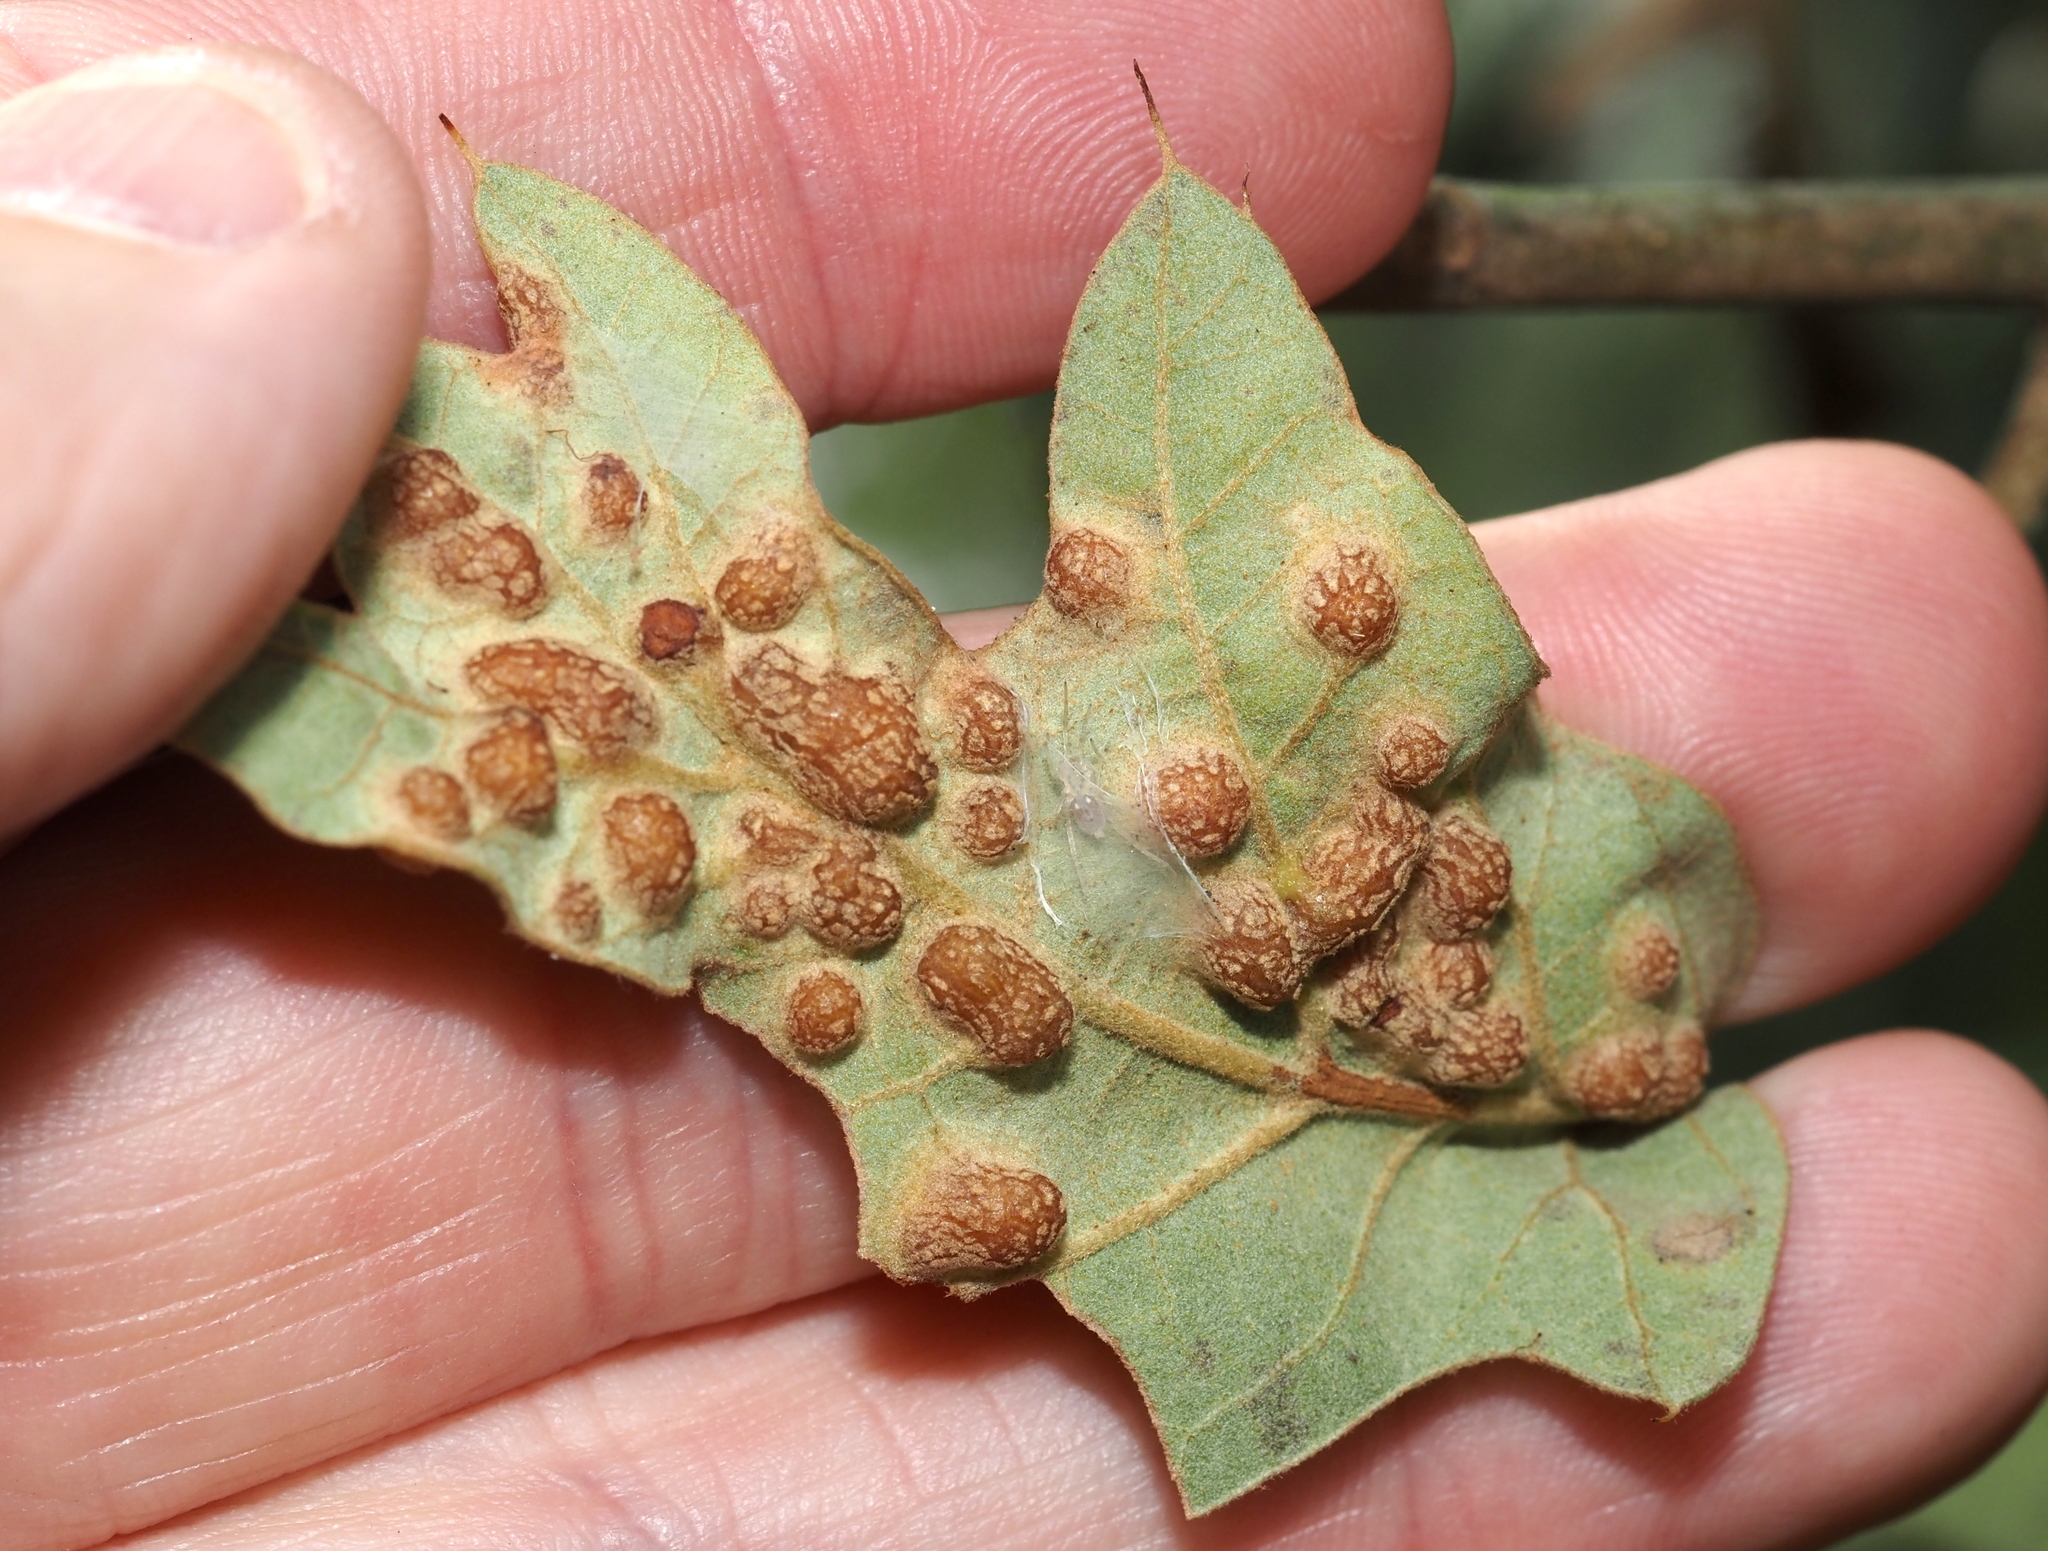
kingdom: Animalia
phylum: Arthropoda
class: Insecta
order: Diptera
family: Cecidomyiidae
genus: Polystepha
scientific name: Polystepha symmetrica
